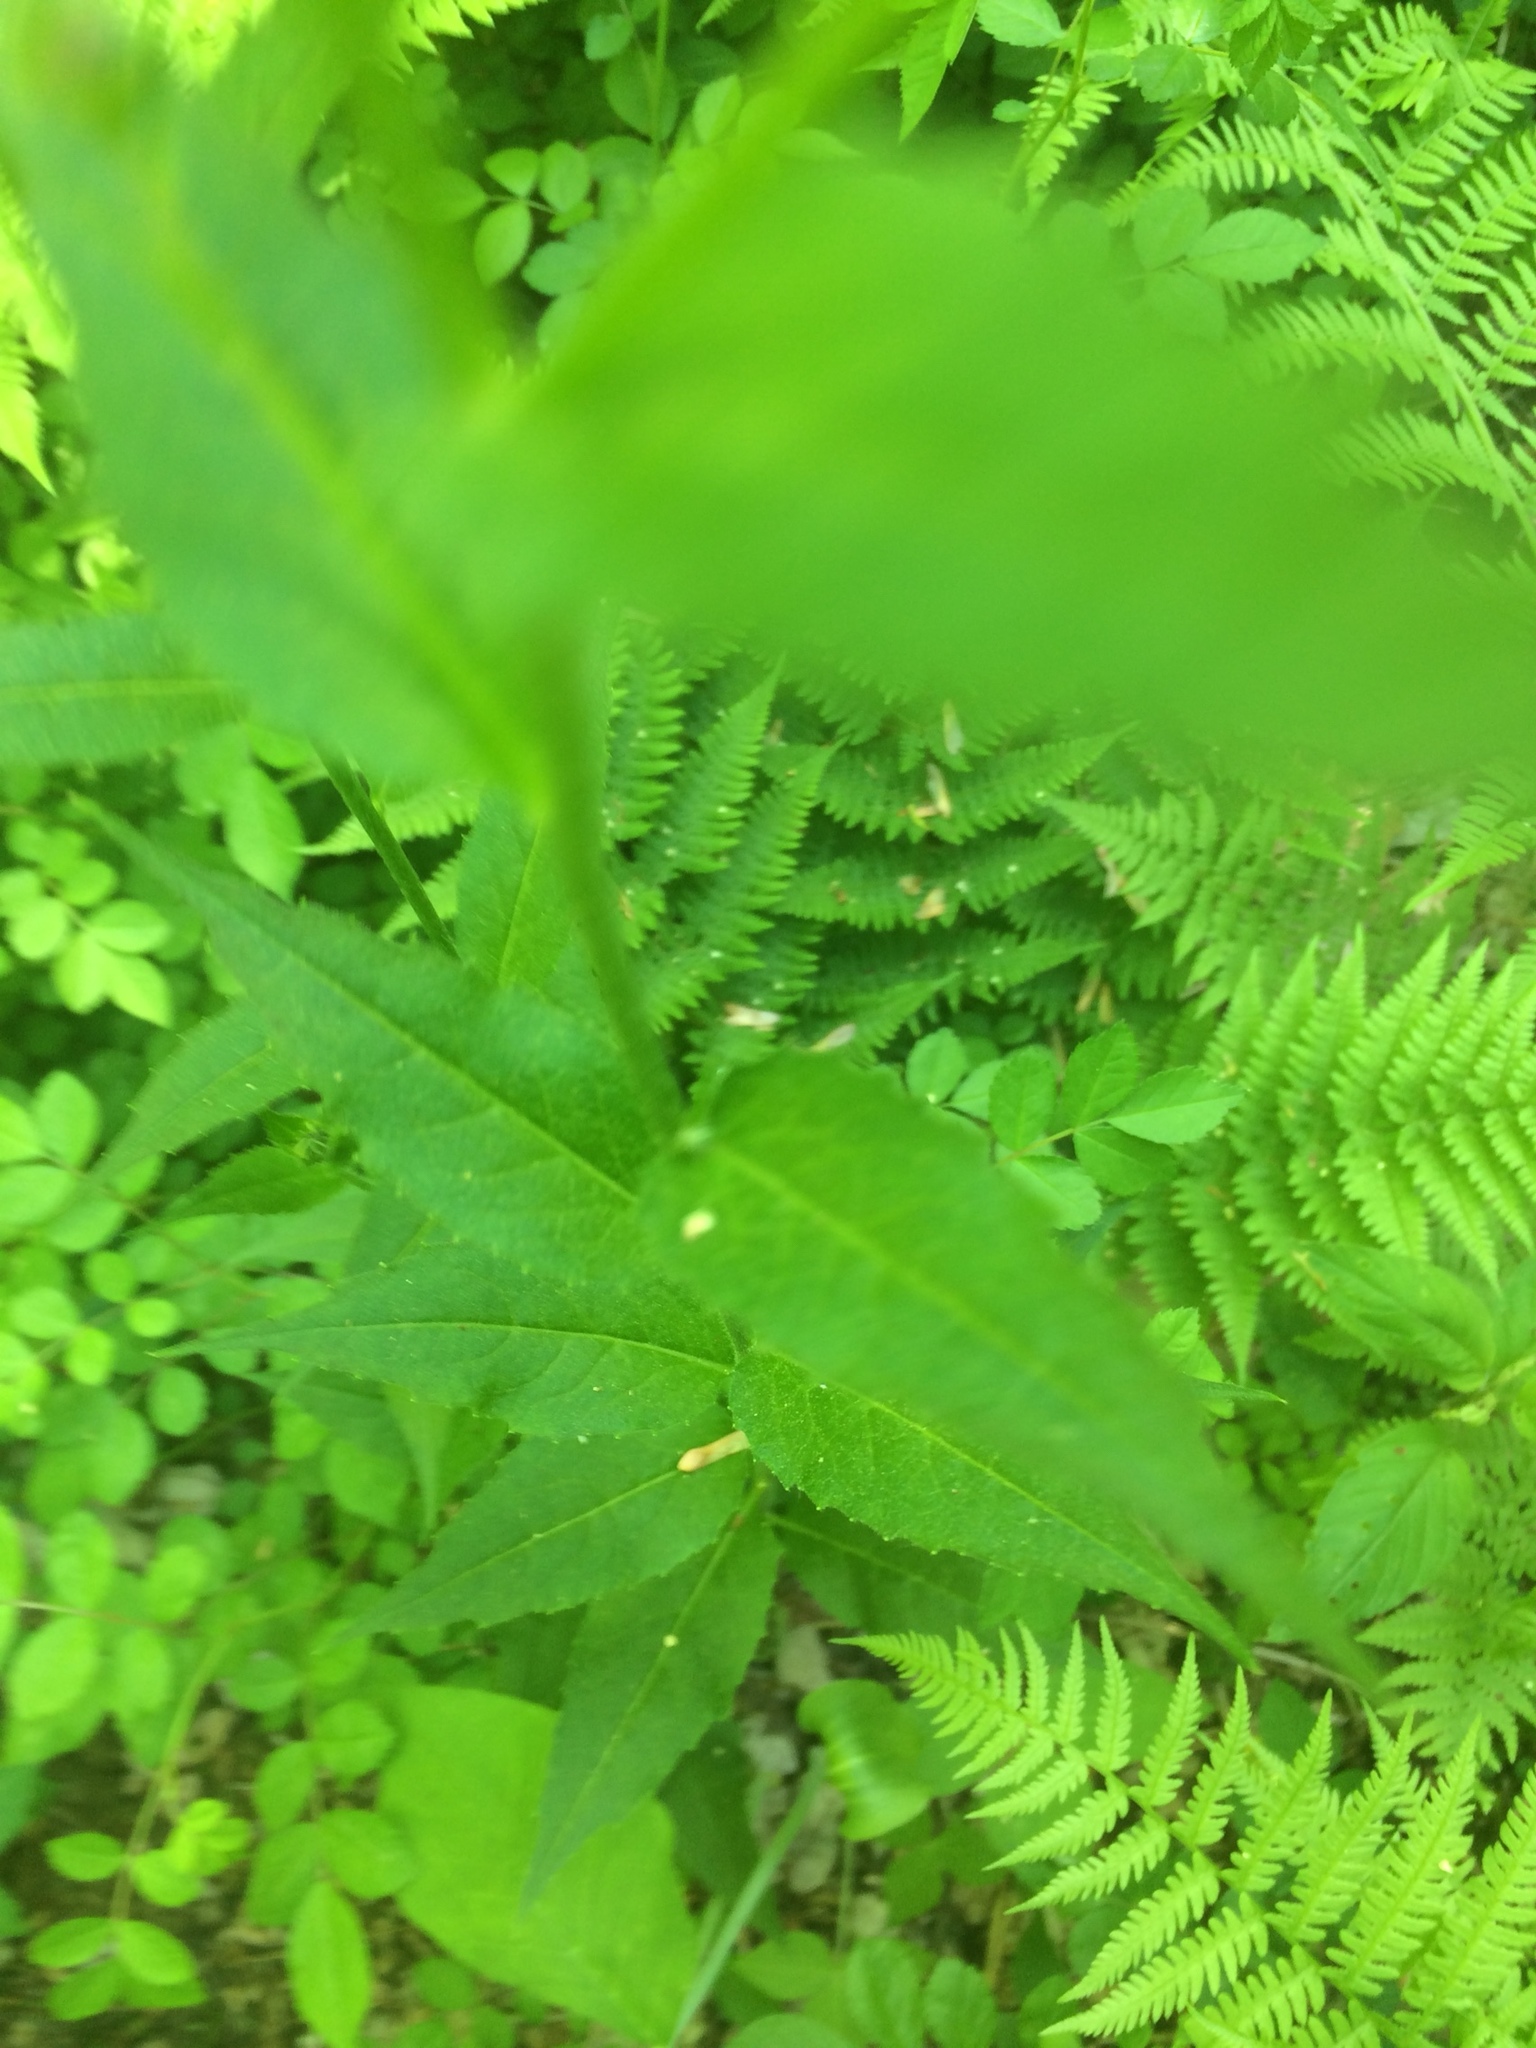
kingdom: Plantae
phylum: Tracheophyta
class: Magnoliopsida
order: Brassicales
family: Brassicaceae
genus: Hesperis
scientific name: Hesperis matronalis
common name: Dame's-violet
